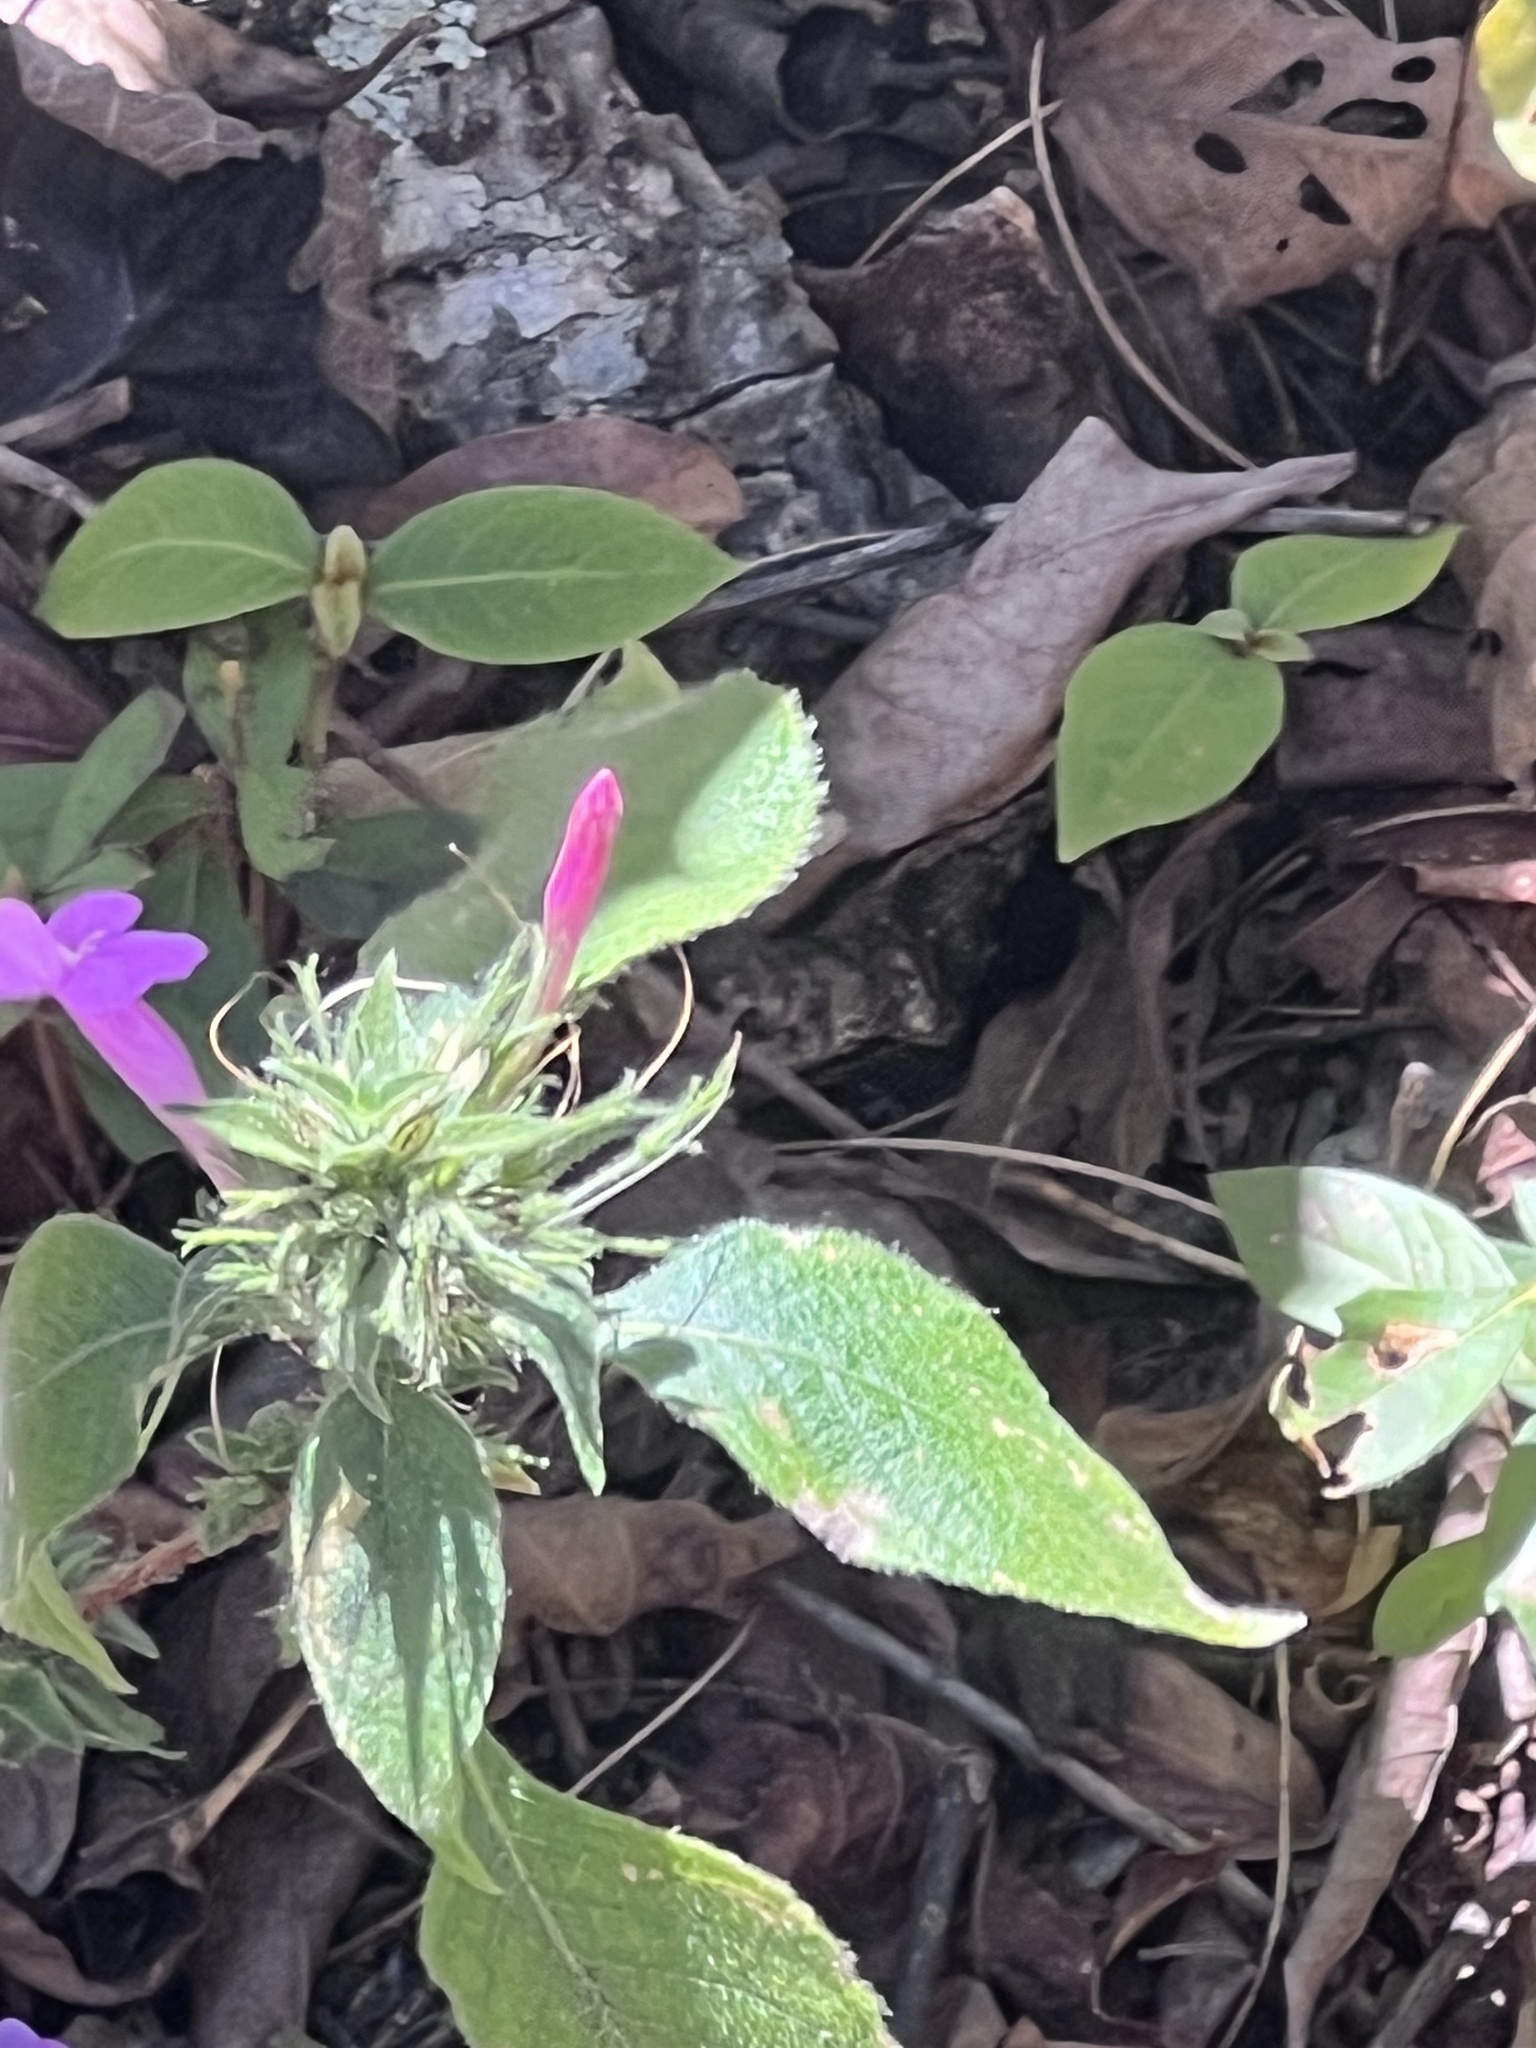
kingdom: Plantae
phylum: Tracheophyta
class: Magnoliopsida
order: Lamiales
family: Acanthaceae
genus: Ruellia
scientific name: Ruellia inundata
